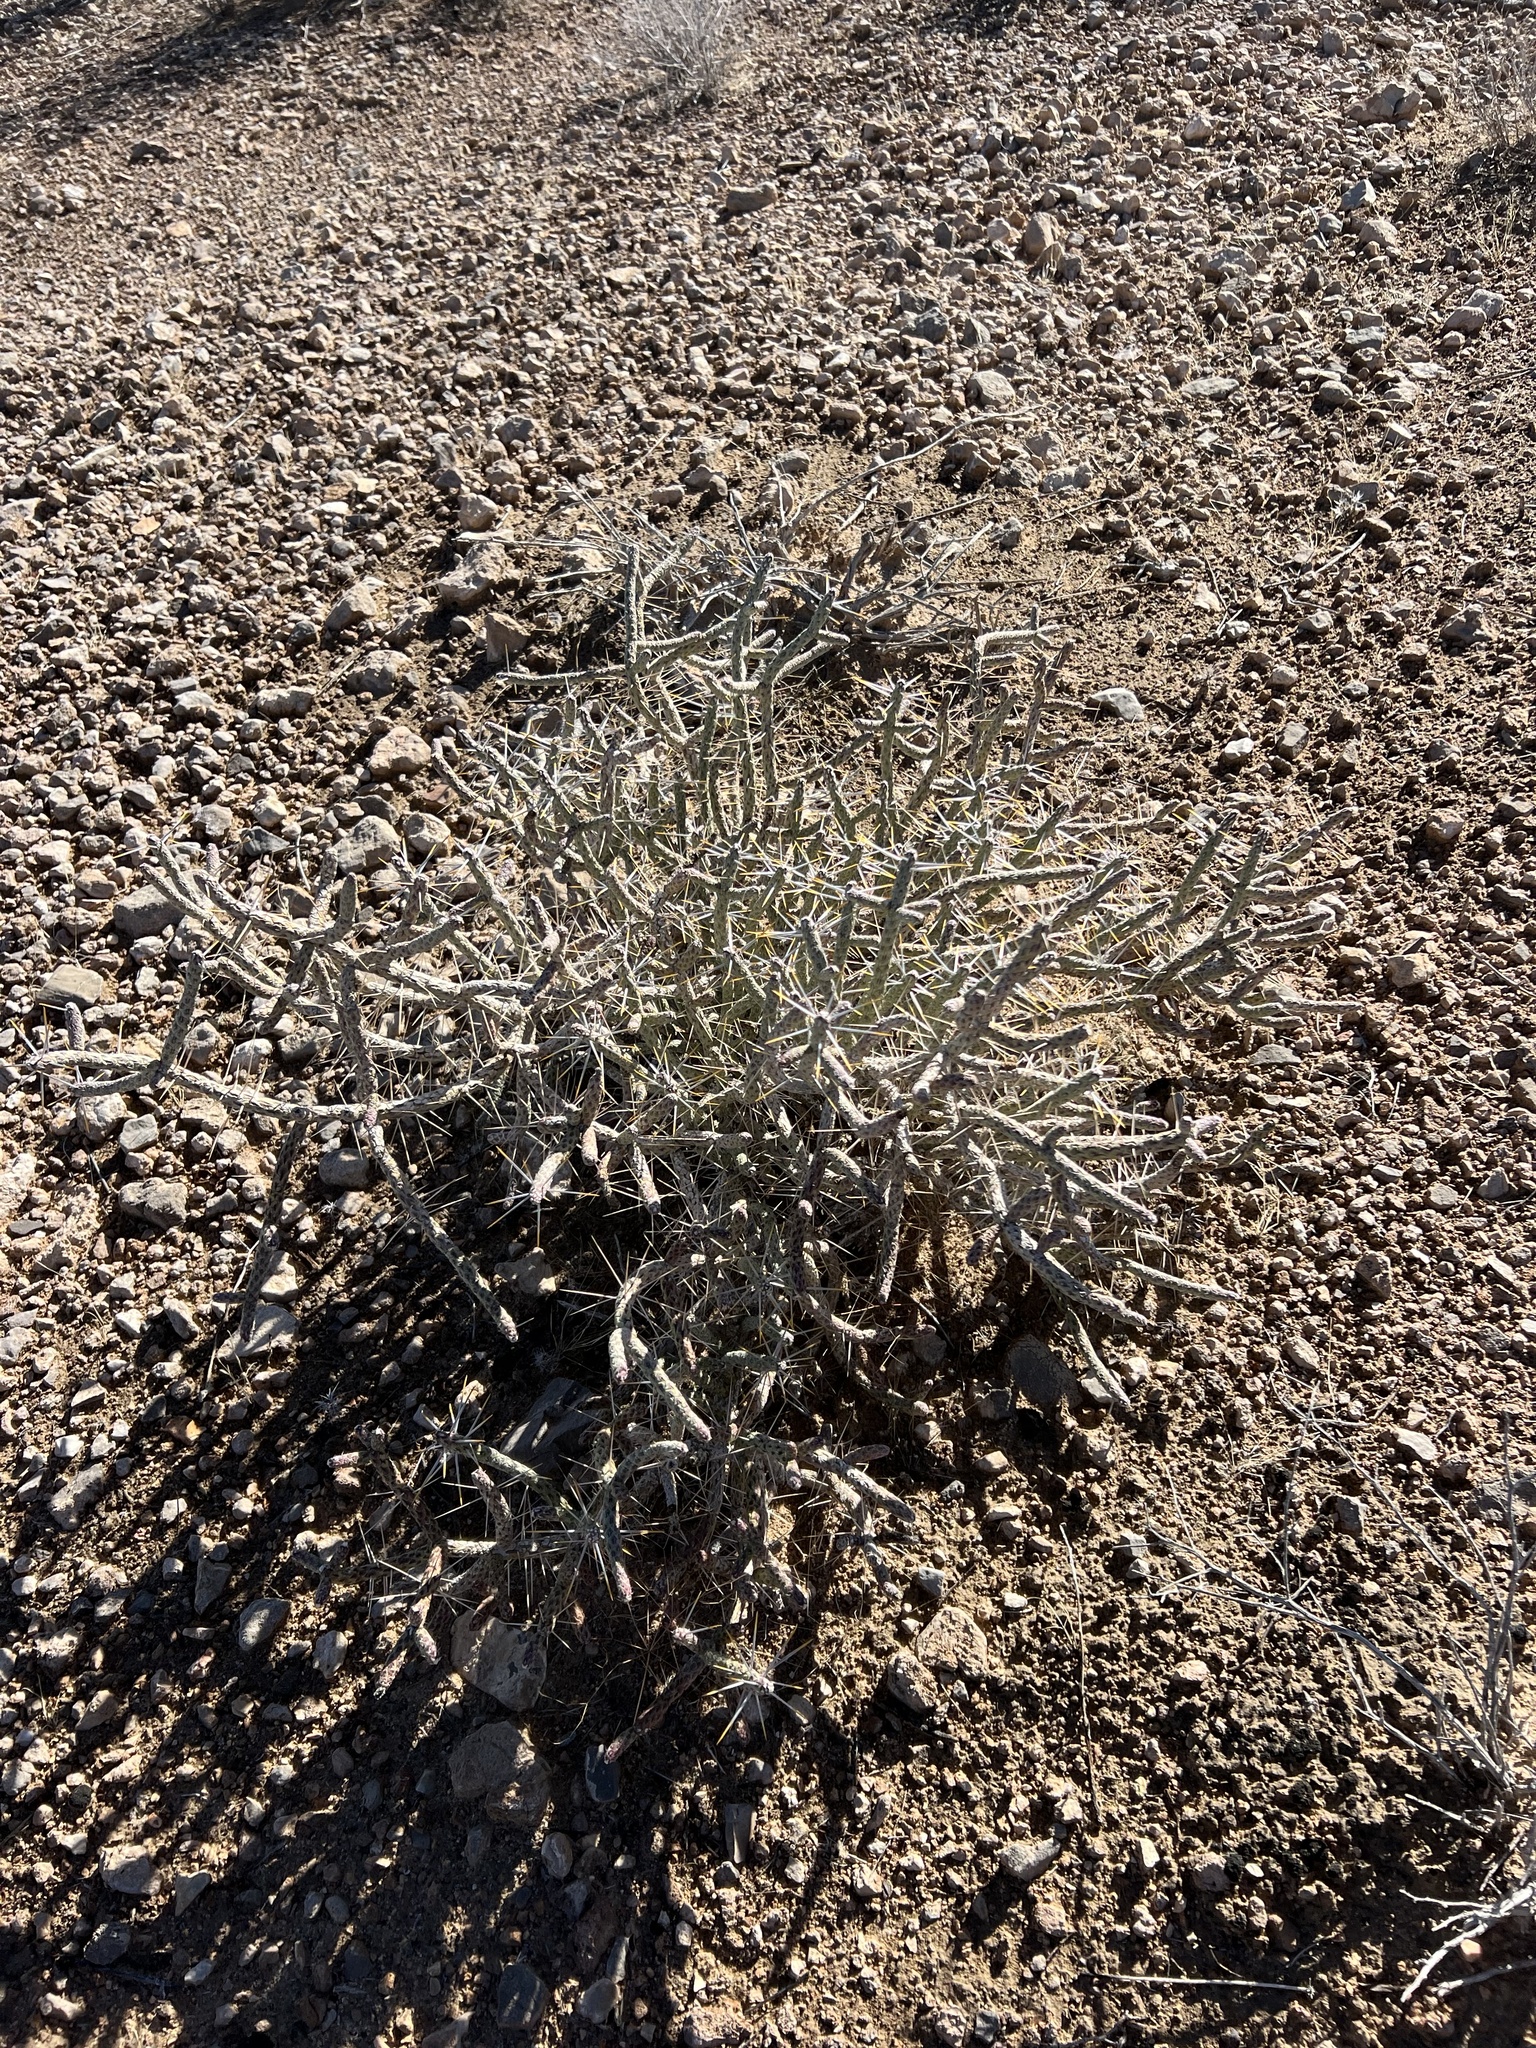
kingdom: Plantae
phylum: Tracheophyta
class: Magnoliopsida
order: Caryophyllales
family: Cactaceae
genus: Cylindropuntia
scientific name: Cylindropuntia ramosissima
